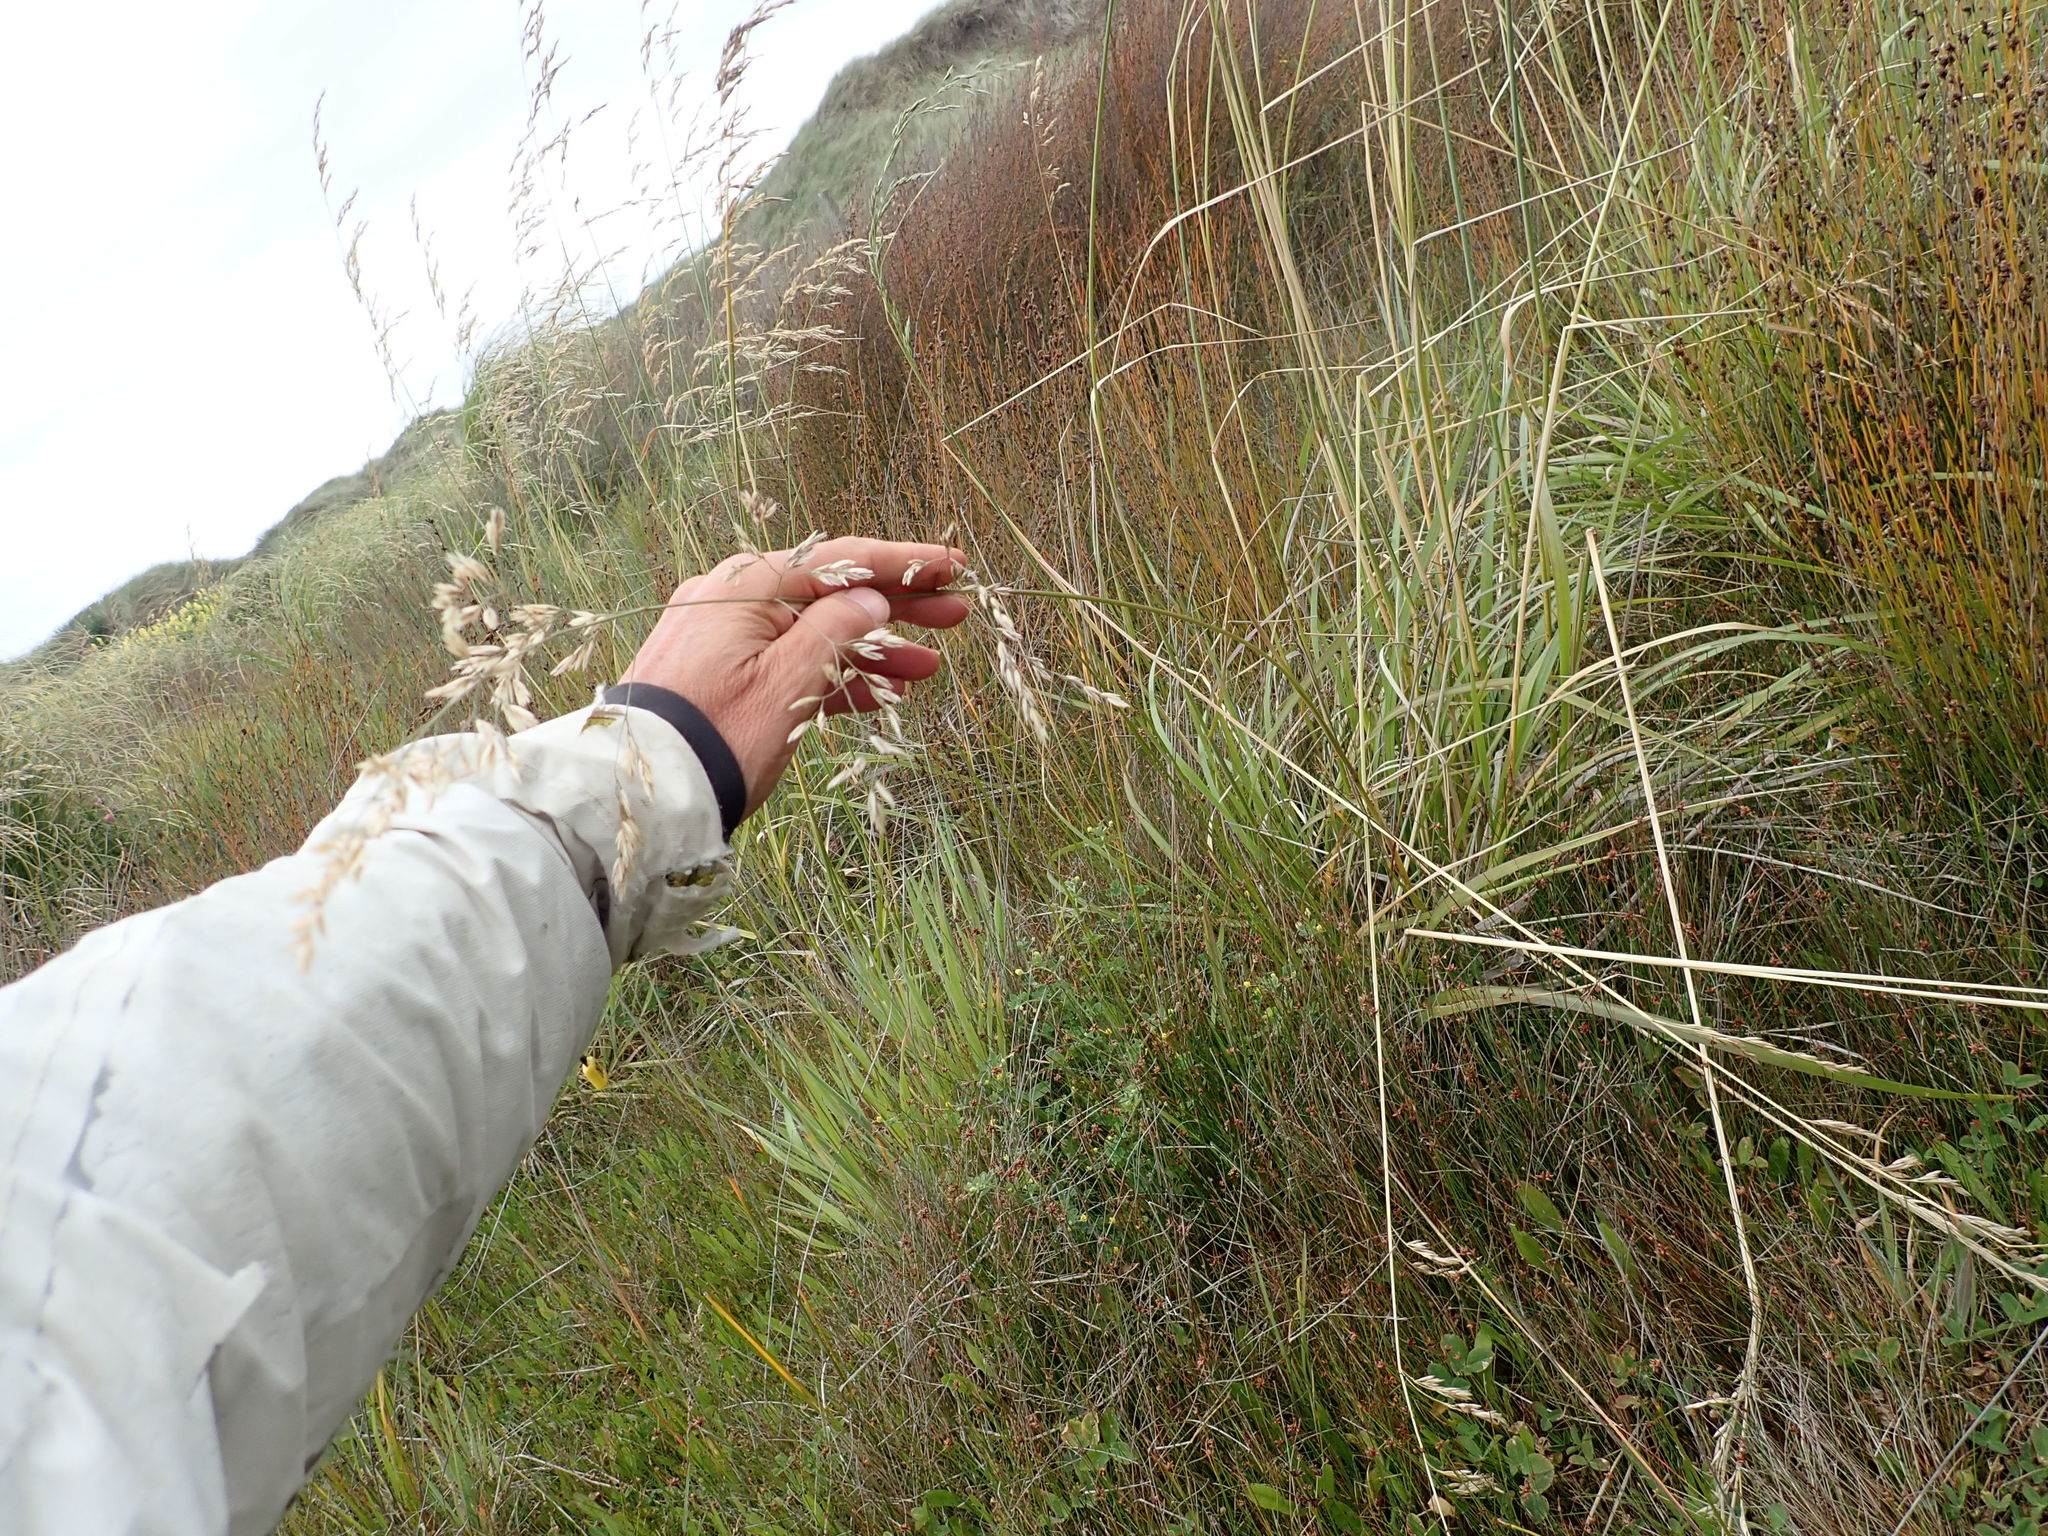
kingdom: Plantae
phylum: Tracheophyta
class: Liliopsida
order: Poales
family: Poaceae
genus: Lolium
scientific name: Lolium arundinaceum
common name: Reed fescue
